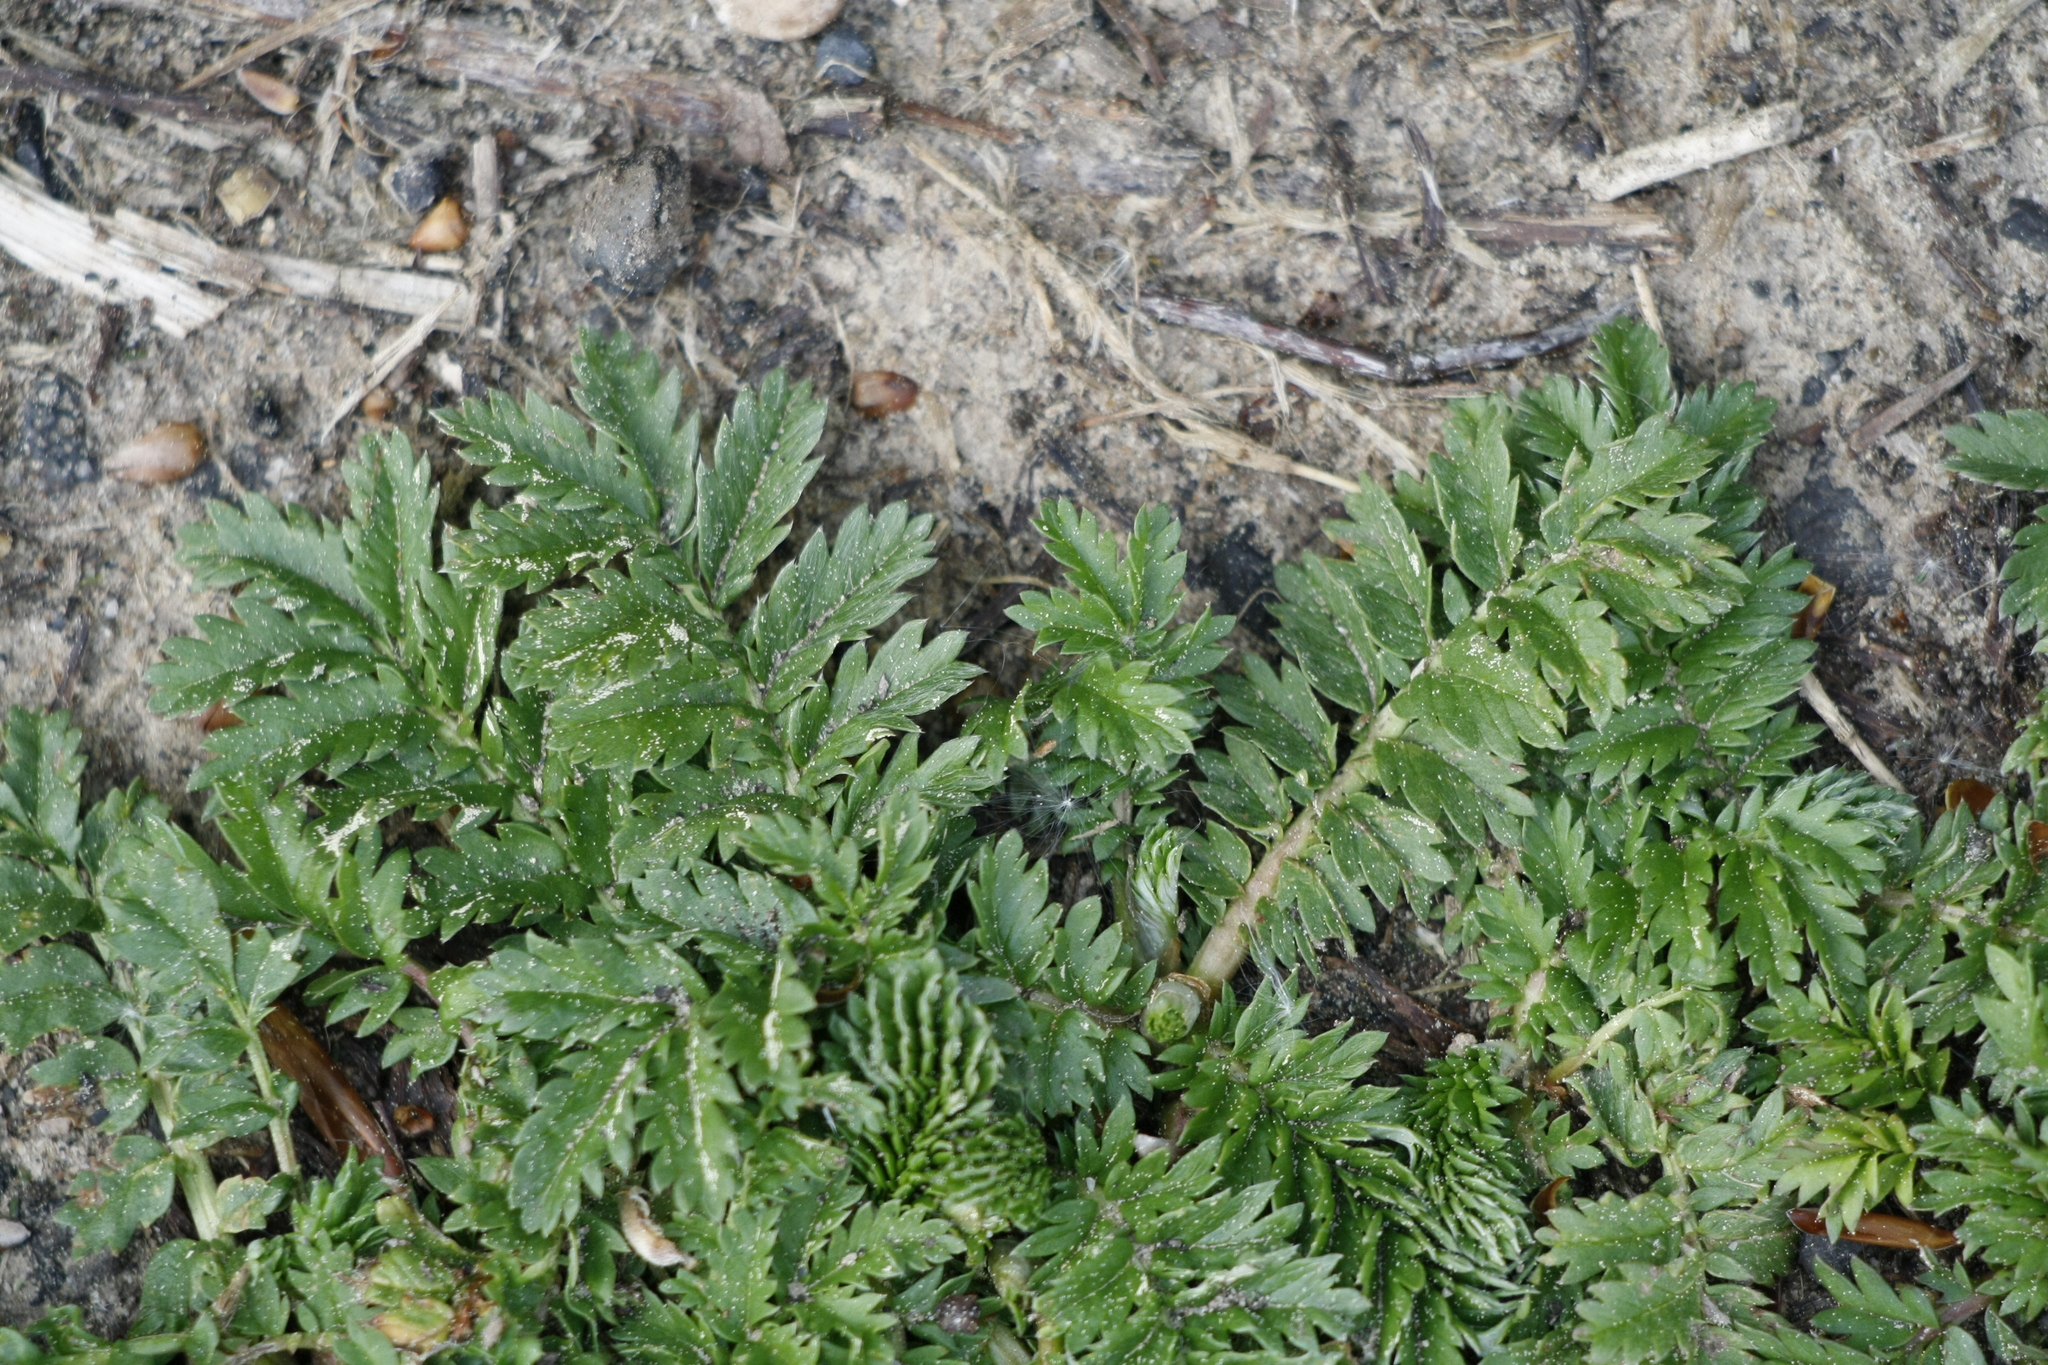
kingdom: Plantae
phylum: Tracheophyta
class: Magnoliopsida
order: Rosales
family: Rosaceae
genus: Argentina
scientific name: Argentina anserina
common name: Common silverweed
